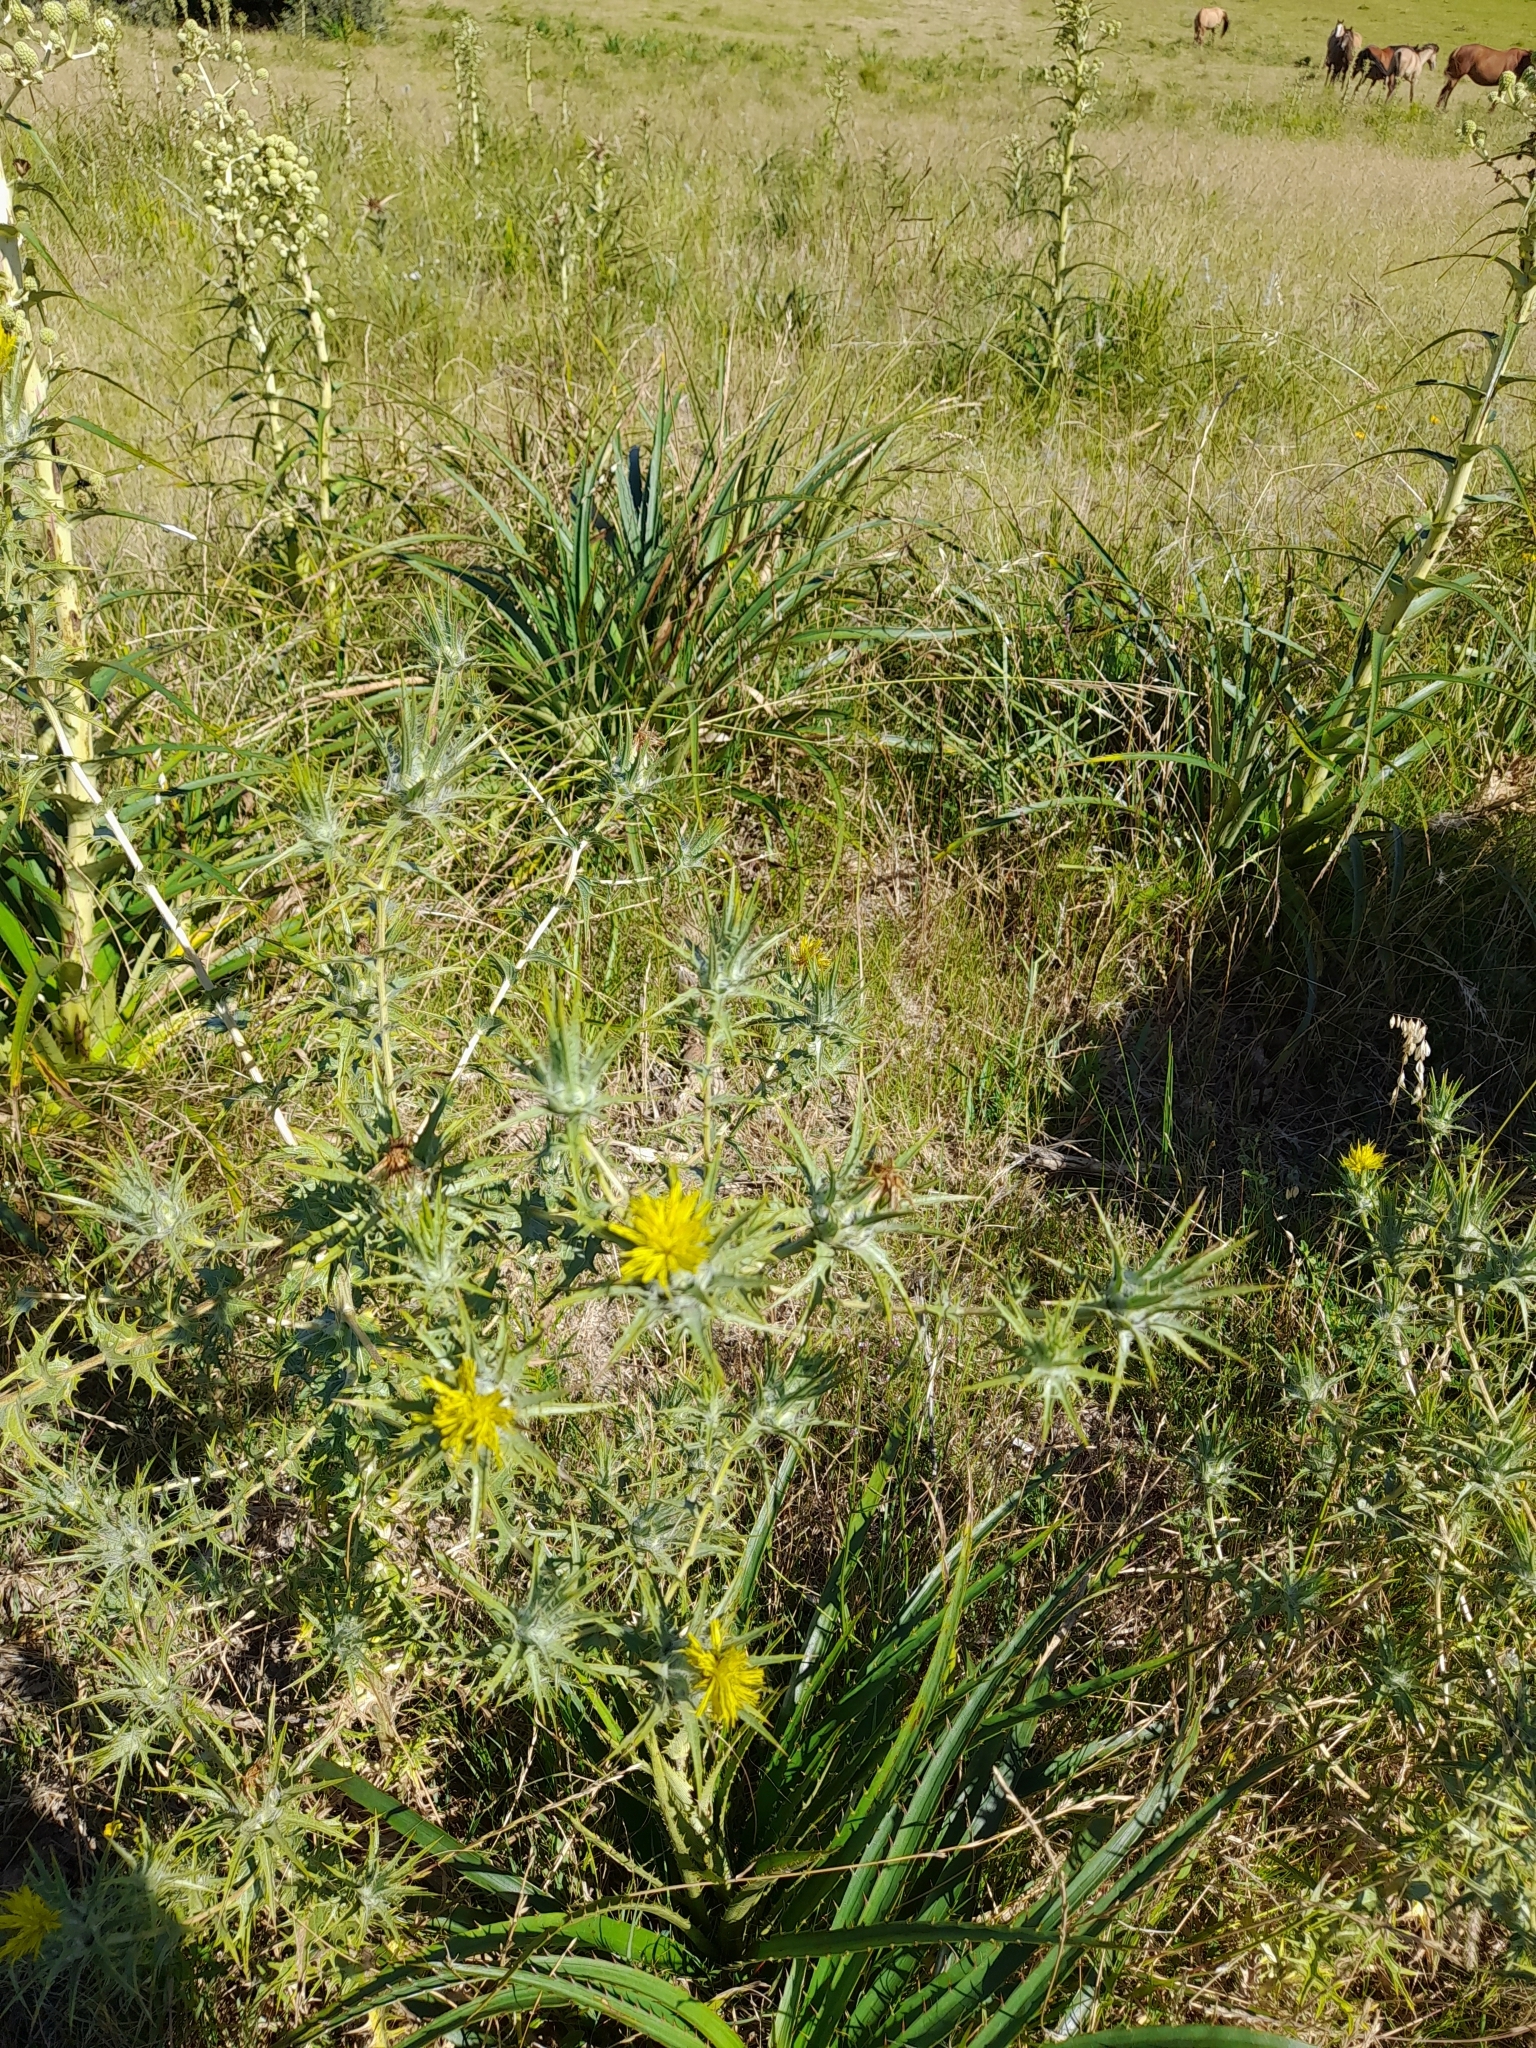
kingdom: Plantae
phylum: Tracheophyta
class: Magnoliopsida
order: Asterales
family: Asteraceae
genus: Carthamus
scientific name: Carthamus lanatus
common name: Downy safflower
